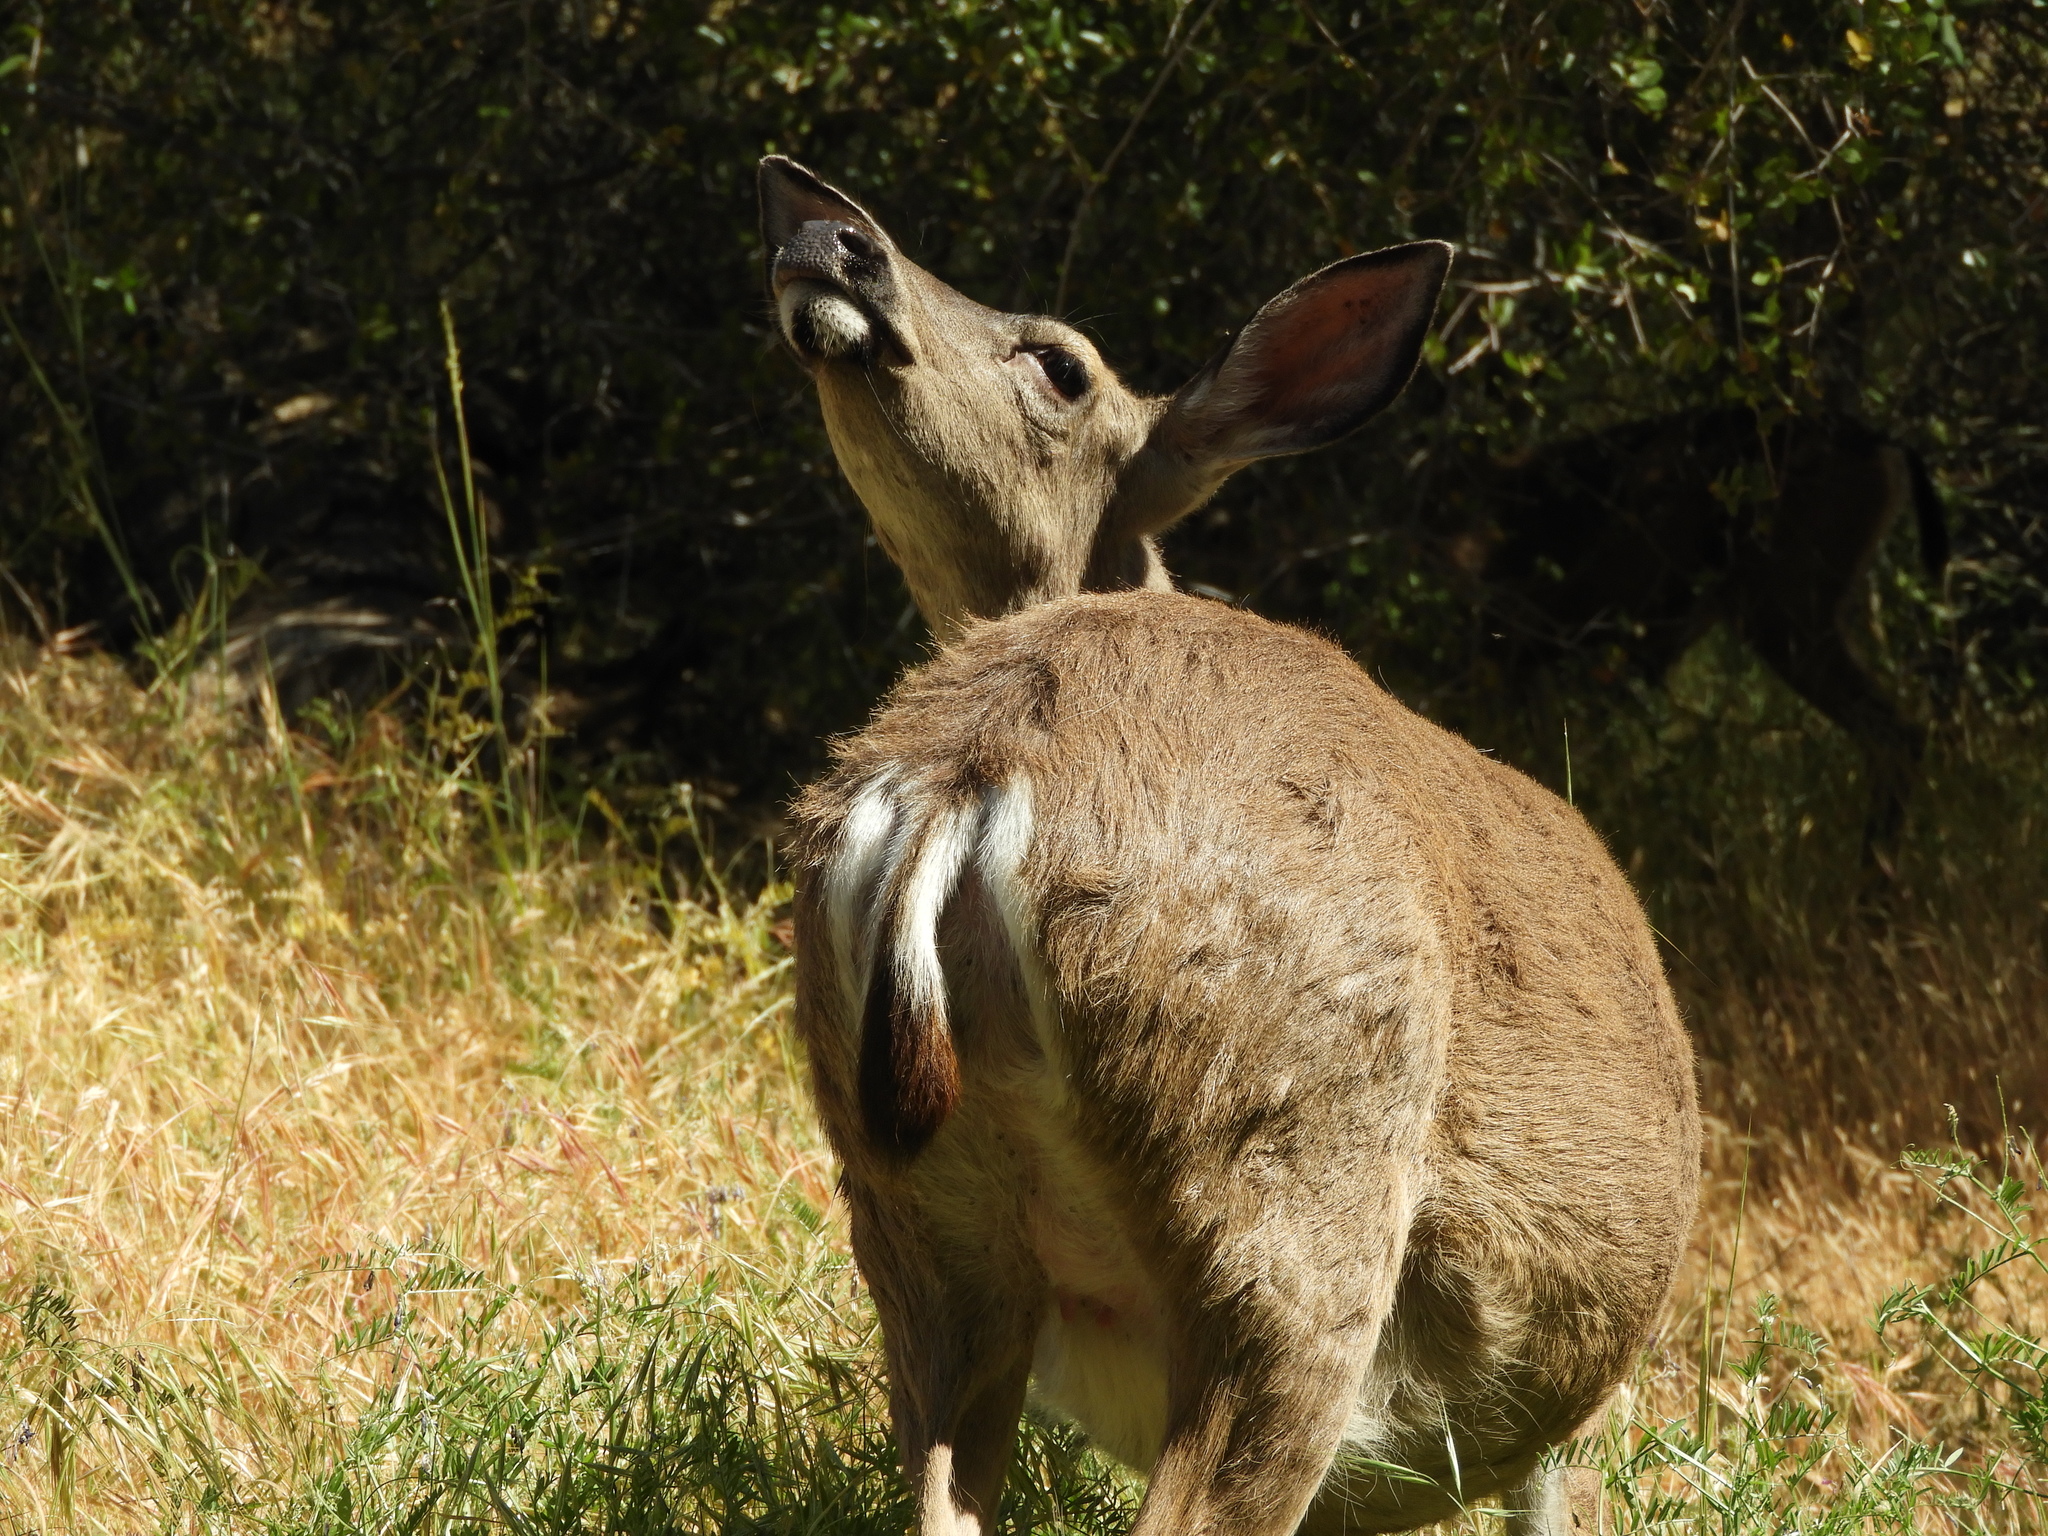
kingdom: Animalia
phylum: Chordata
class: Mammalia
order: Artiodactyla
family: Cervidae
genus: Odocoileus
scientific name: Odocoileus hemionus
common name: Mule deer
